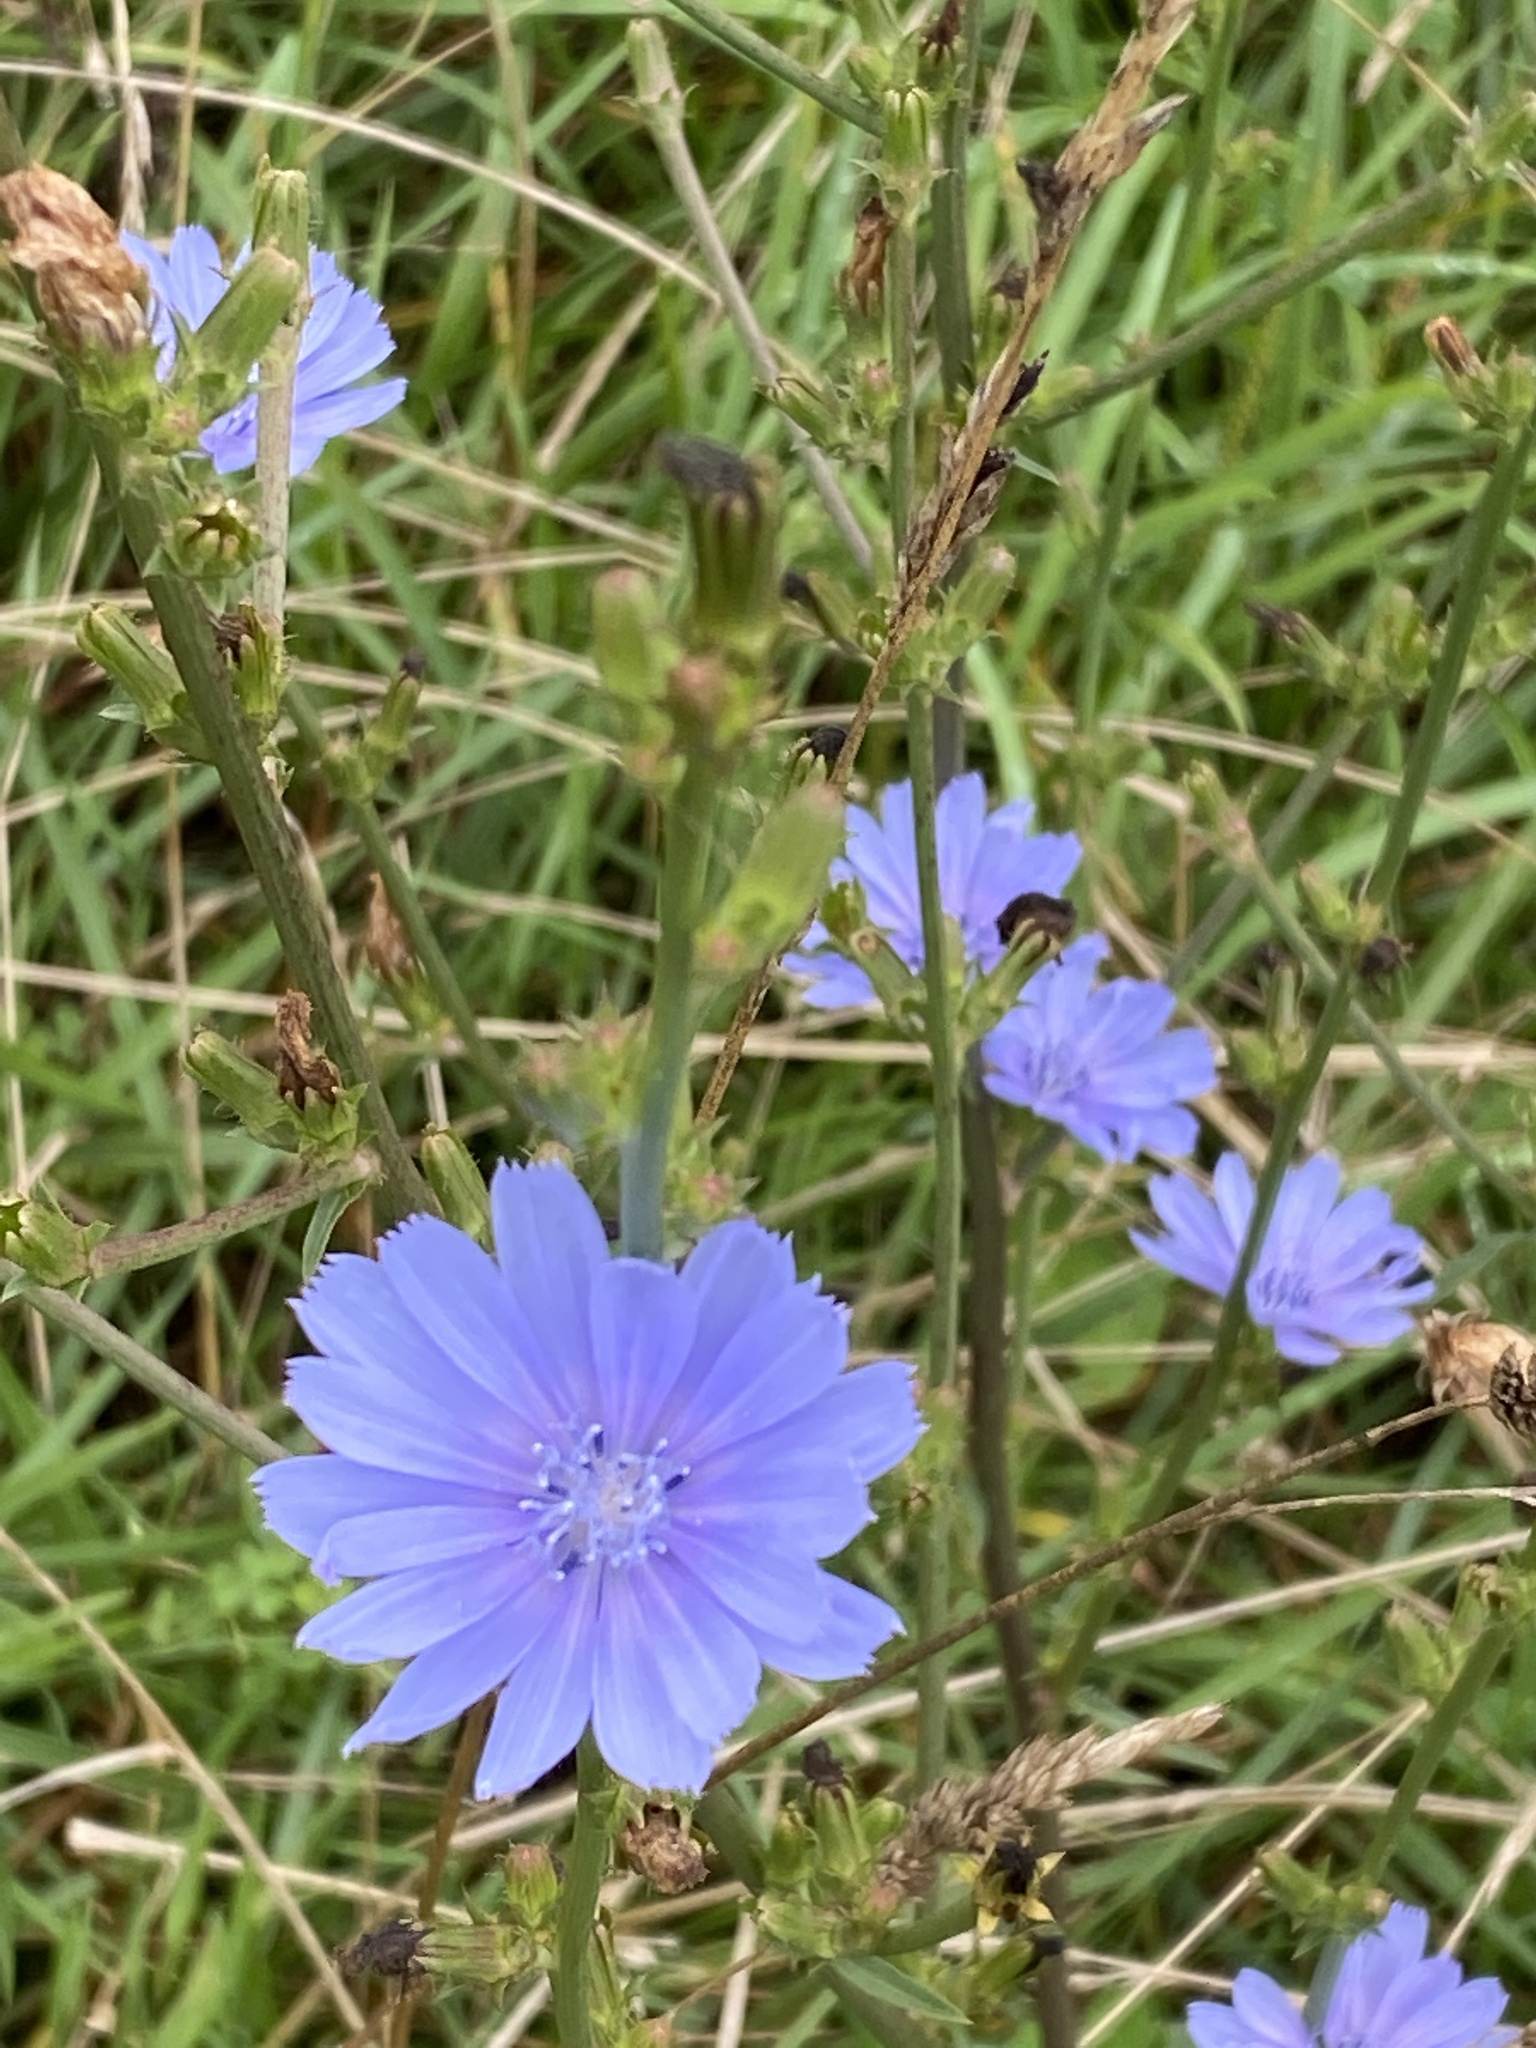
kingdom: Plantae
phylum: Tracheophyta
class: Magnoliopsida
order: Asterales
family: Asteraceae
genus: Cichorium
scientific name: Cichorium intybus
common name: Chicory
